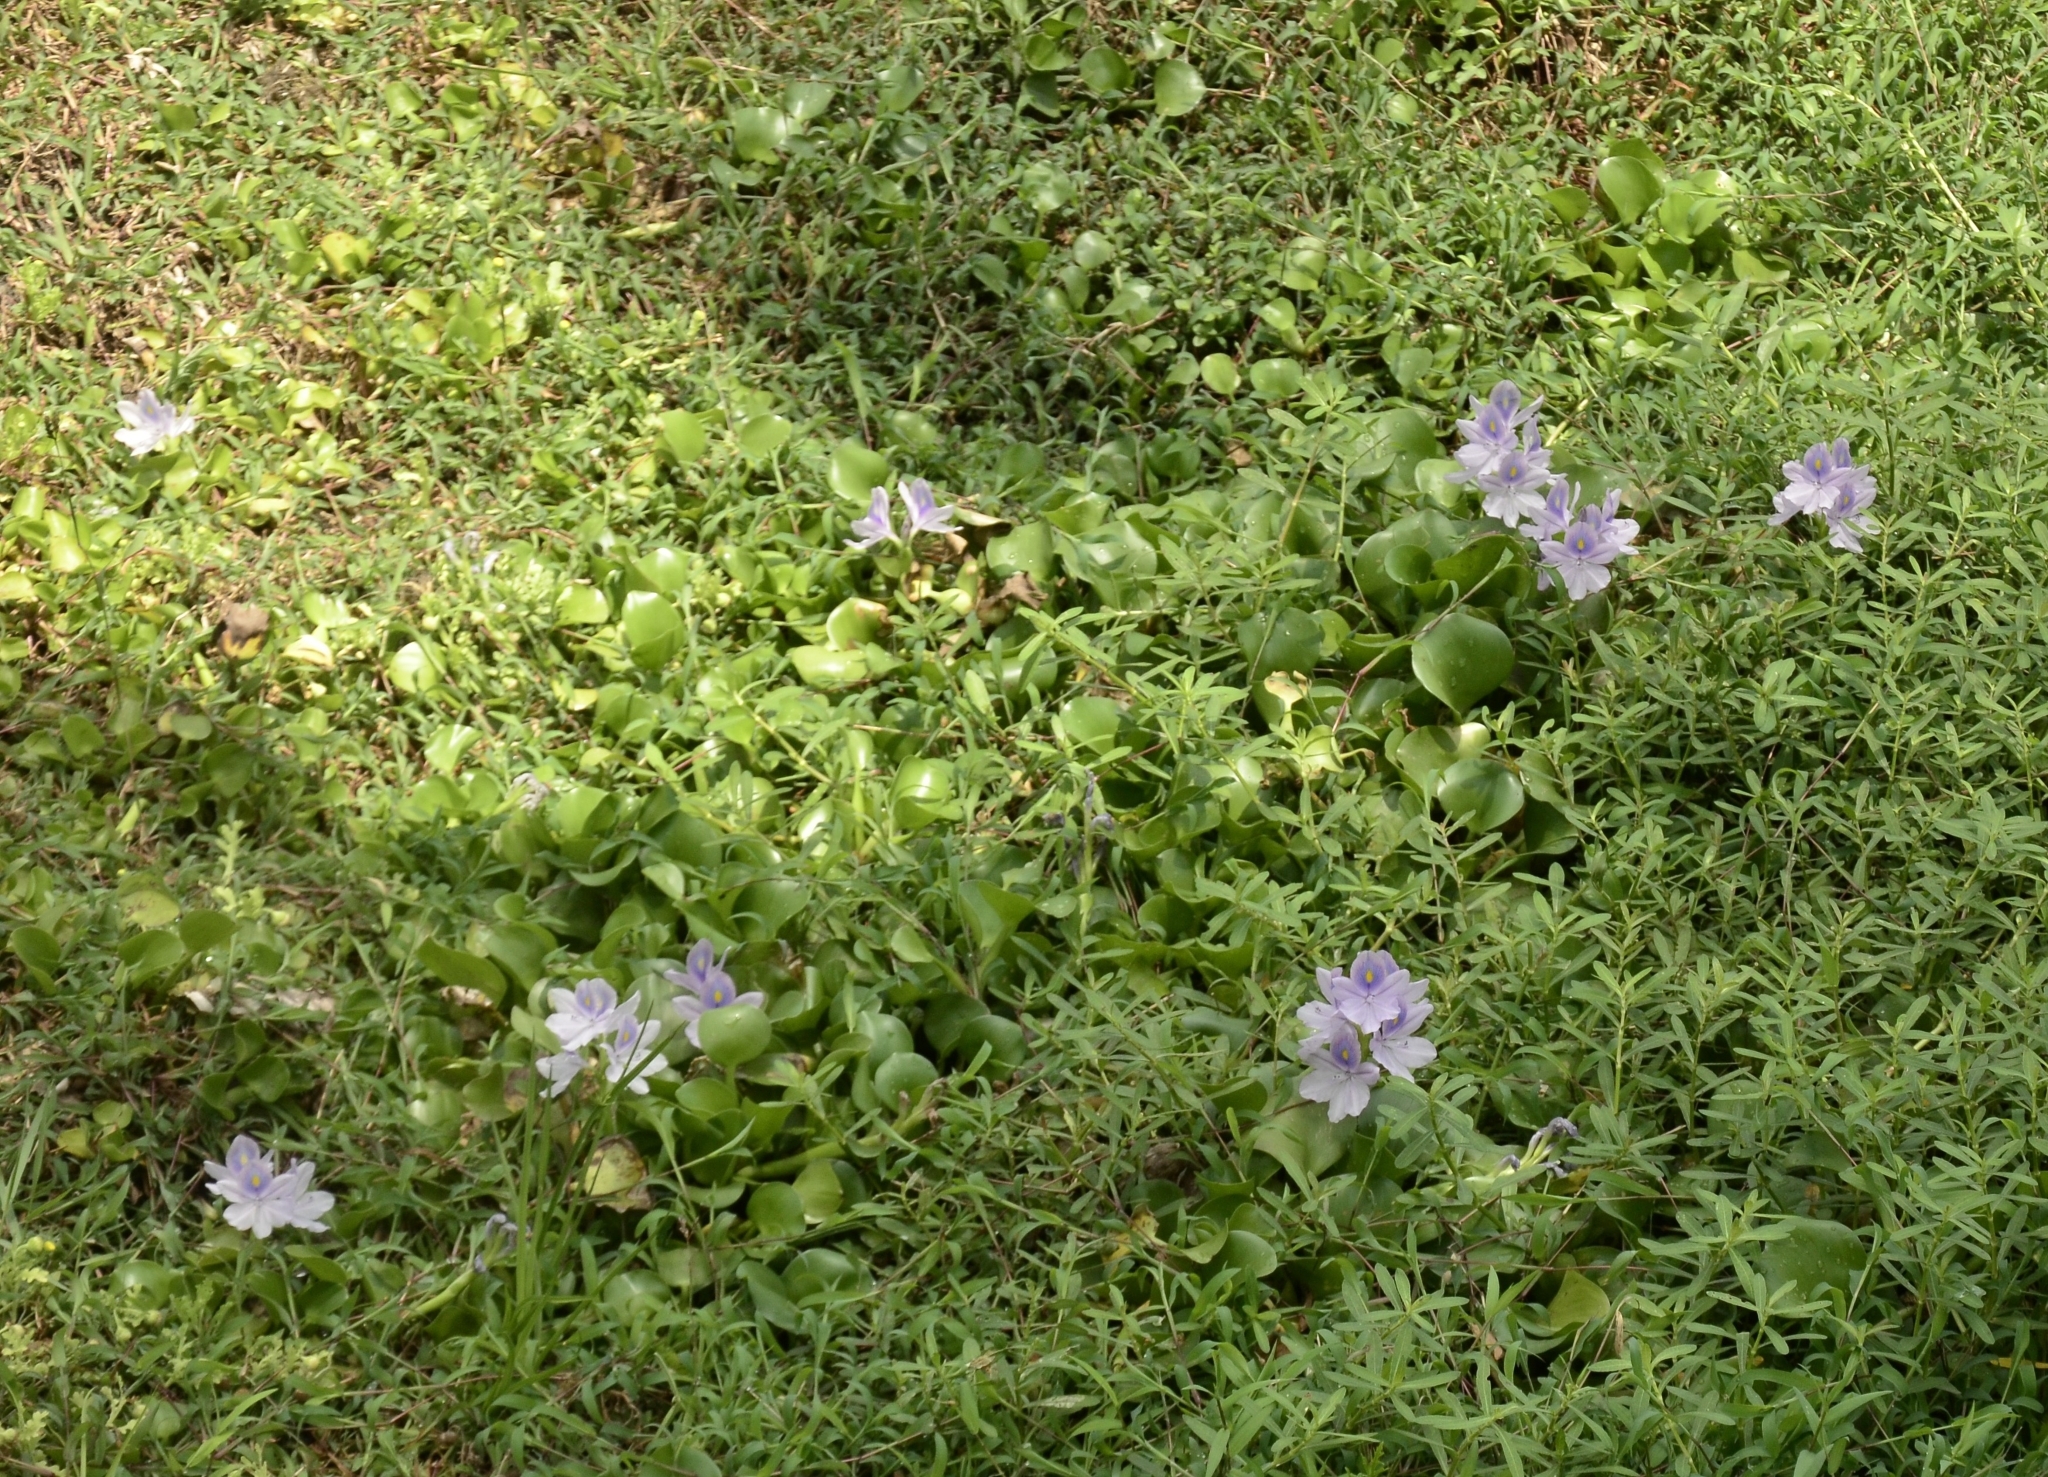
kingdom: Plantae
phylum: Tracheophyta
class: Liliopsida
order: Commelinales
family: Pontederiaceae
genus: Pontederia
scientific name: Pontederia crassipes
